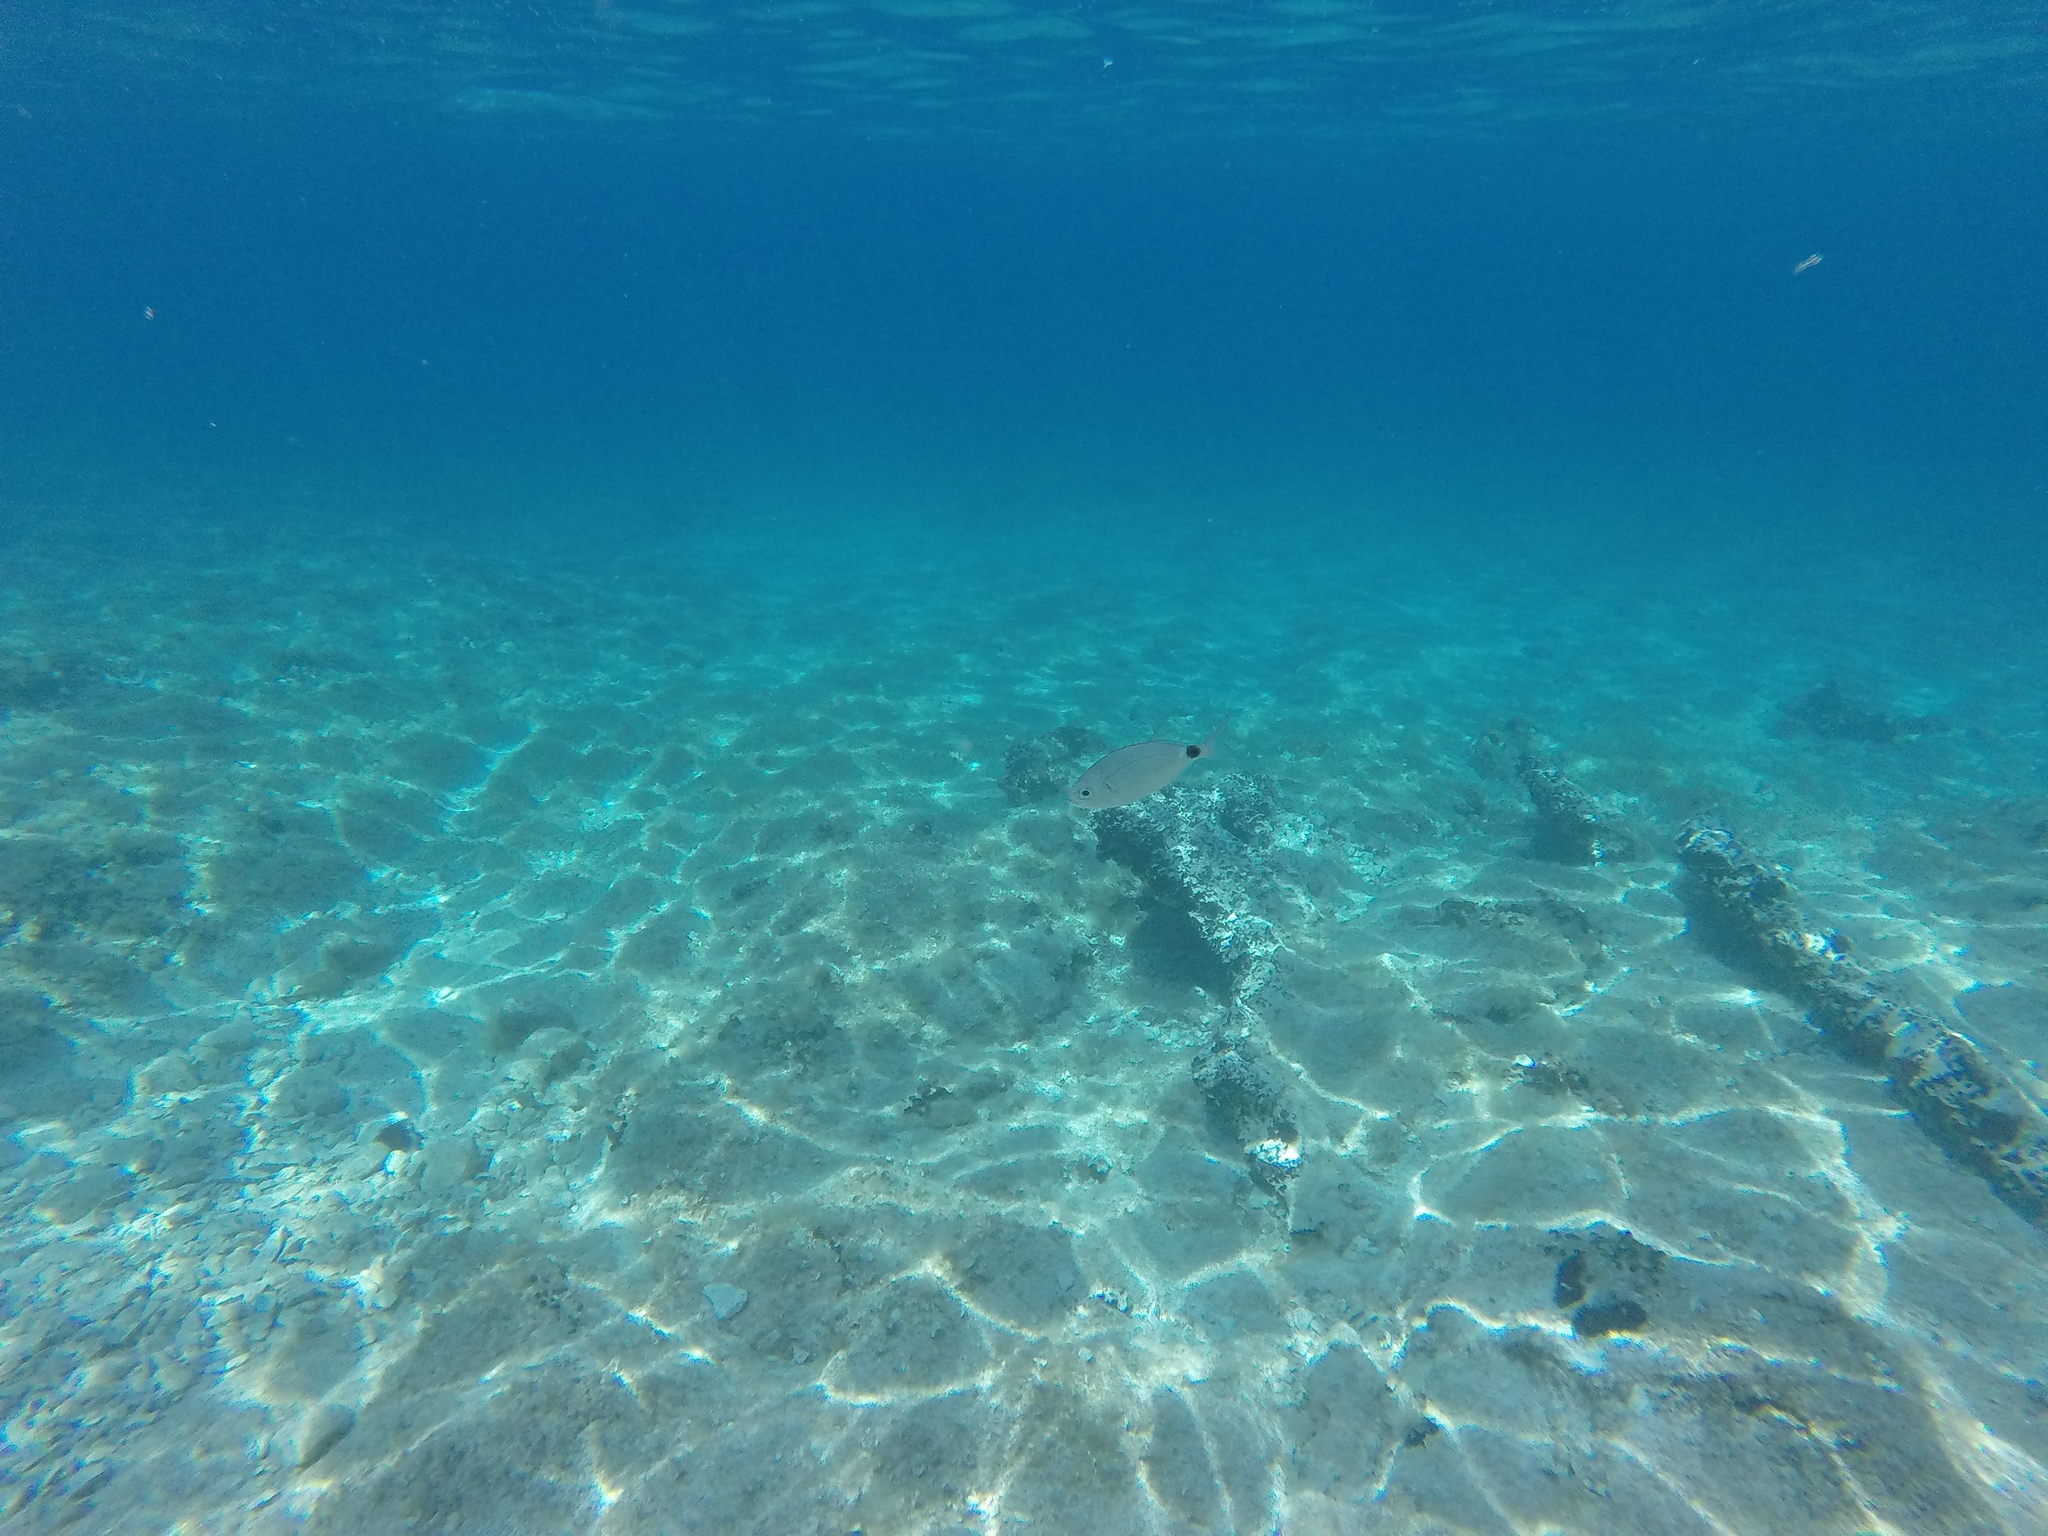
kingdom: Animalia
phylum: Chordata
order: Perciformes
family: Sparidae
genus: Oblada
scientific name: Oblada melanura
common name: Saddled seabream
